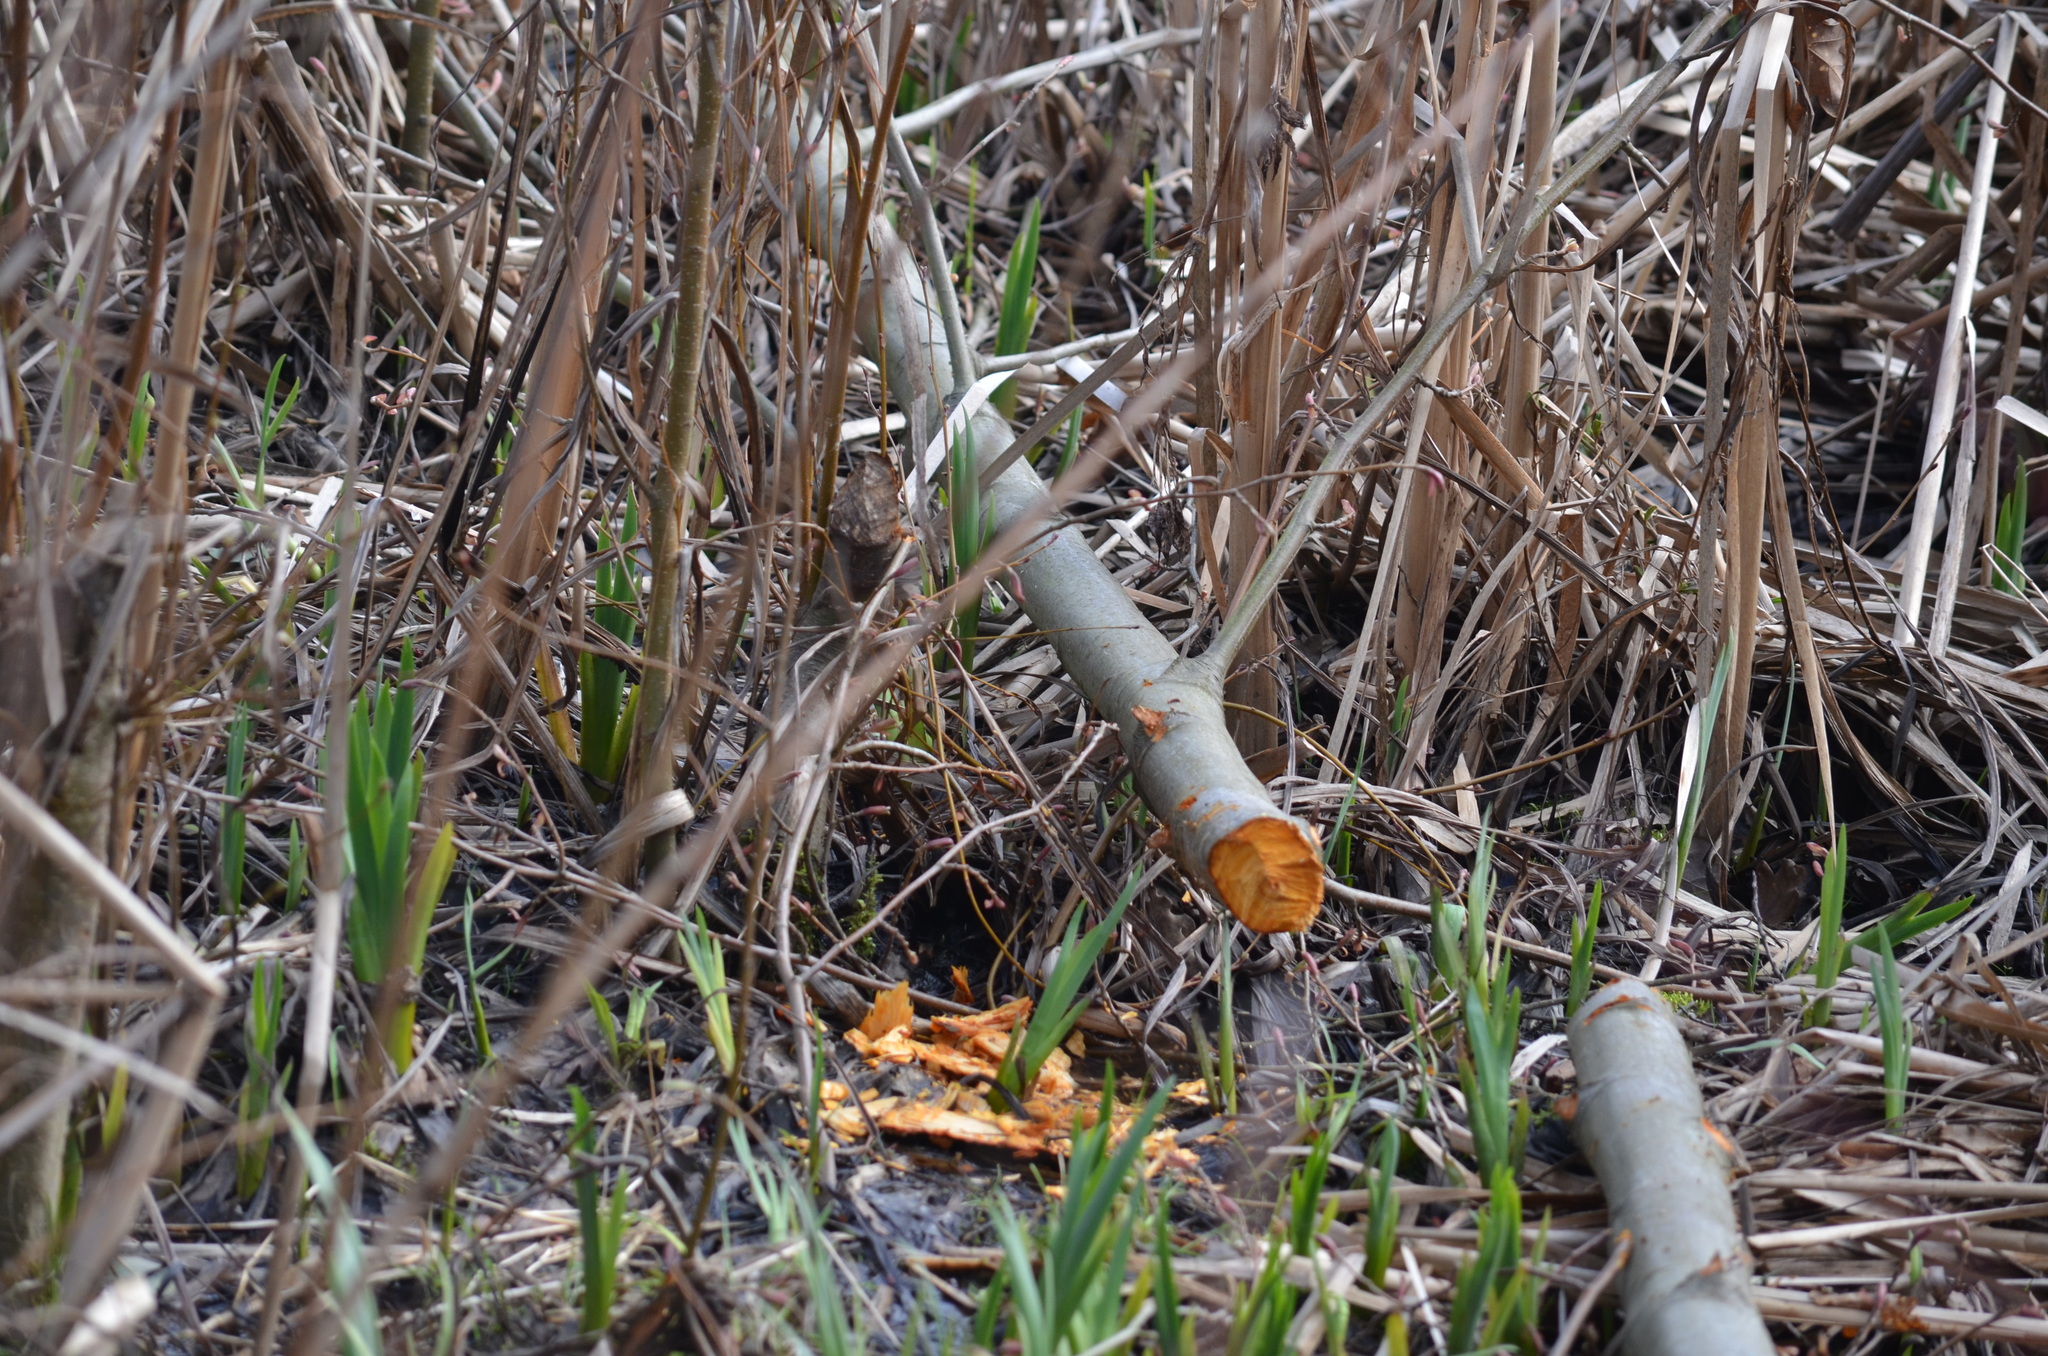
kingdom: Animalia
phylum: Chordata
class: Mammalia
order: Rodentia
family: Castoridae
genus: Castor
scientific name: Castor canadensis
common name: American beaver
